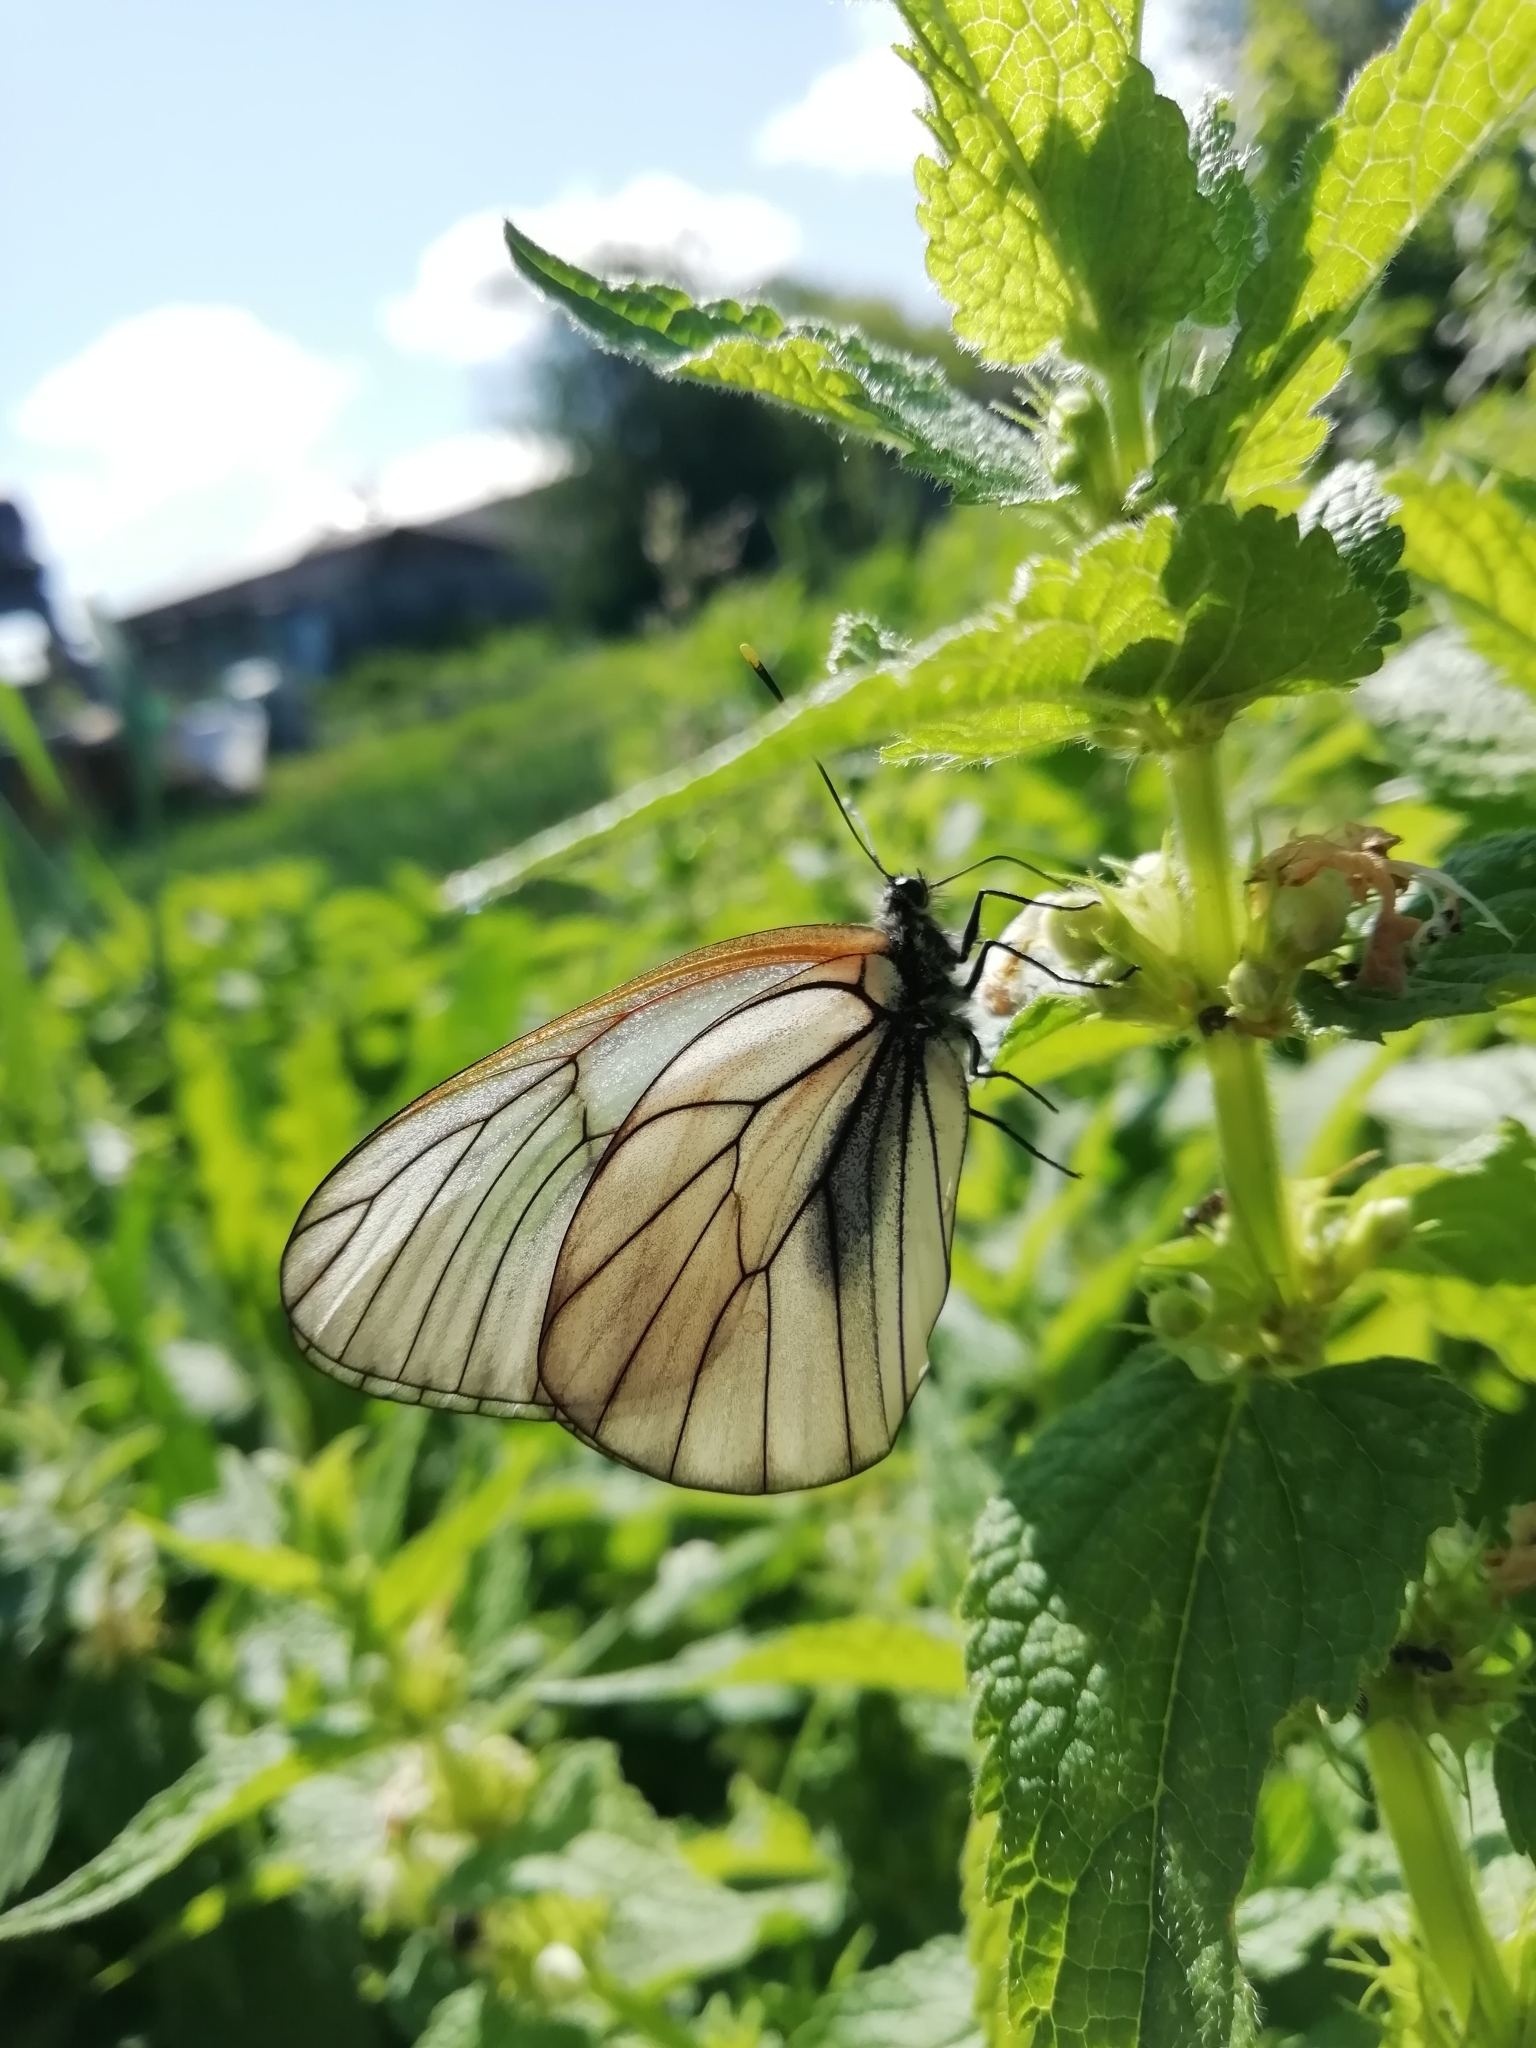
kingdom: Animalia
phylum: Arthropoda
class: Insecta
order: Lepidoptera
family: Pieridae
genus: Aporia
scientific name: Aporia crataegi
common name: Black-veined white
